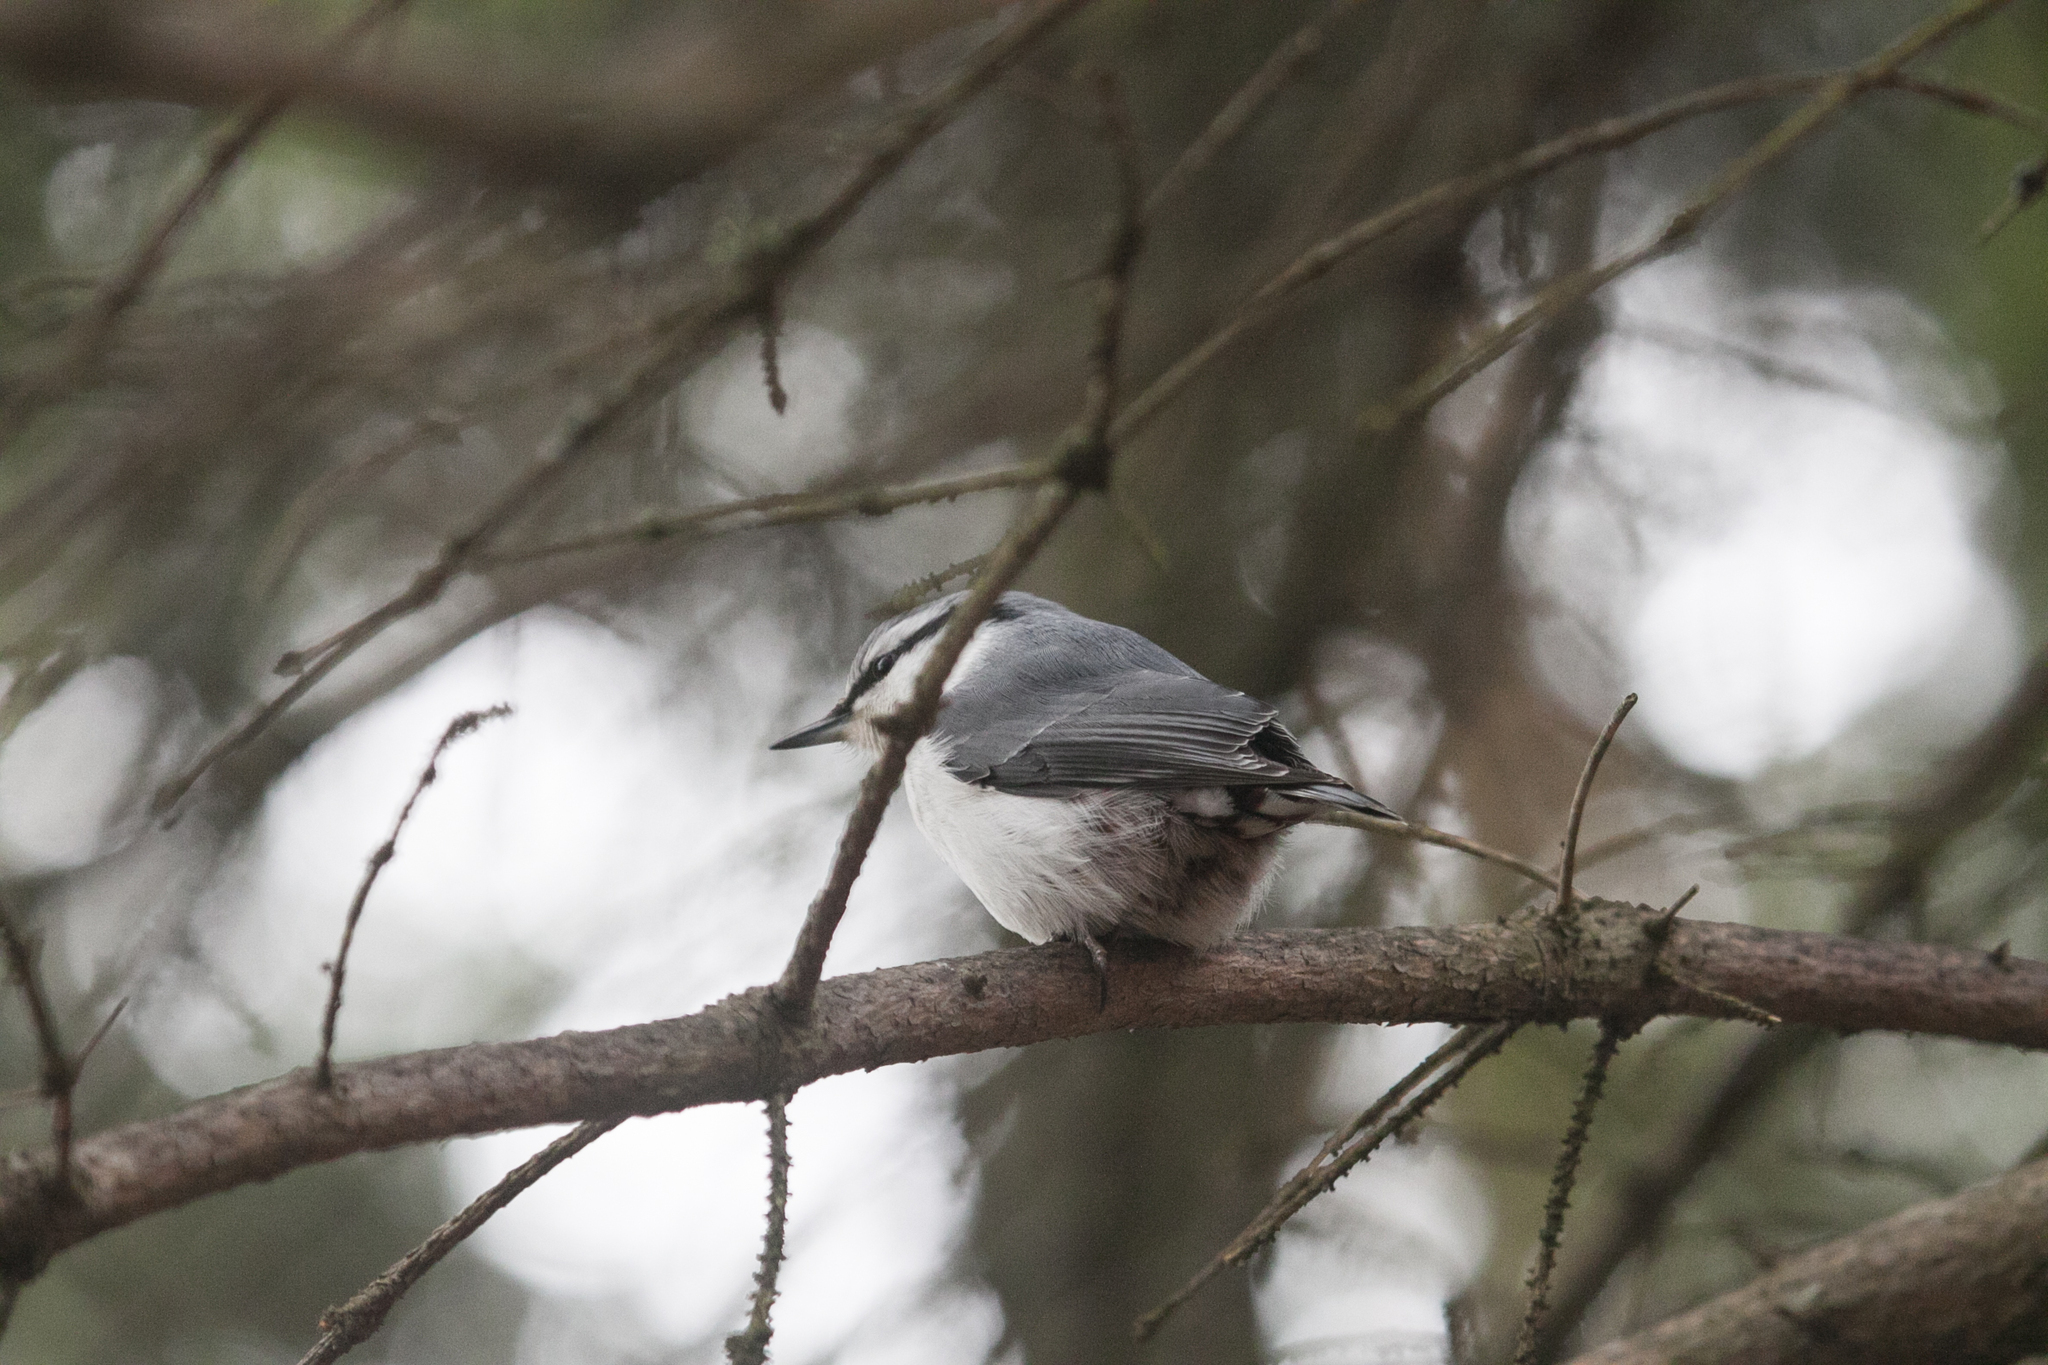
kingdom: Animalia
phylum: Chordata
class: Aves
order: Passeriformes
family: Sittidae
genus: Sitta
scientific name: Sitta europaea
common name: Eurasian nuthatch
